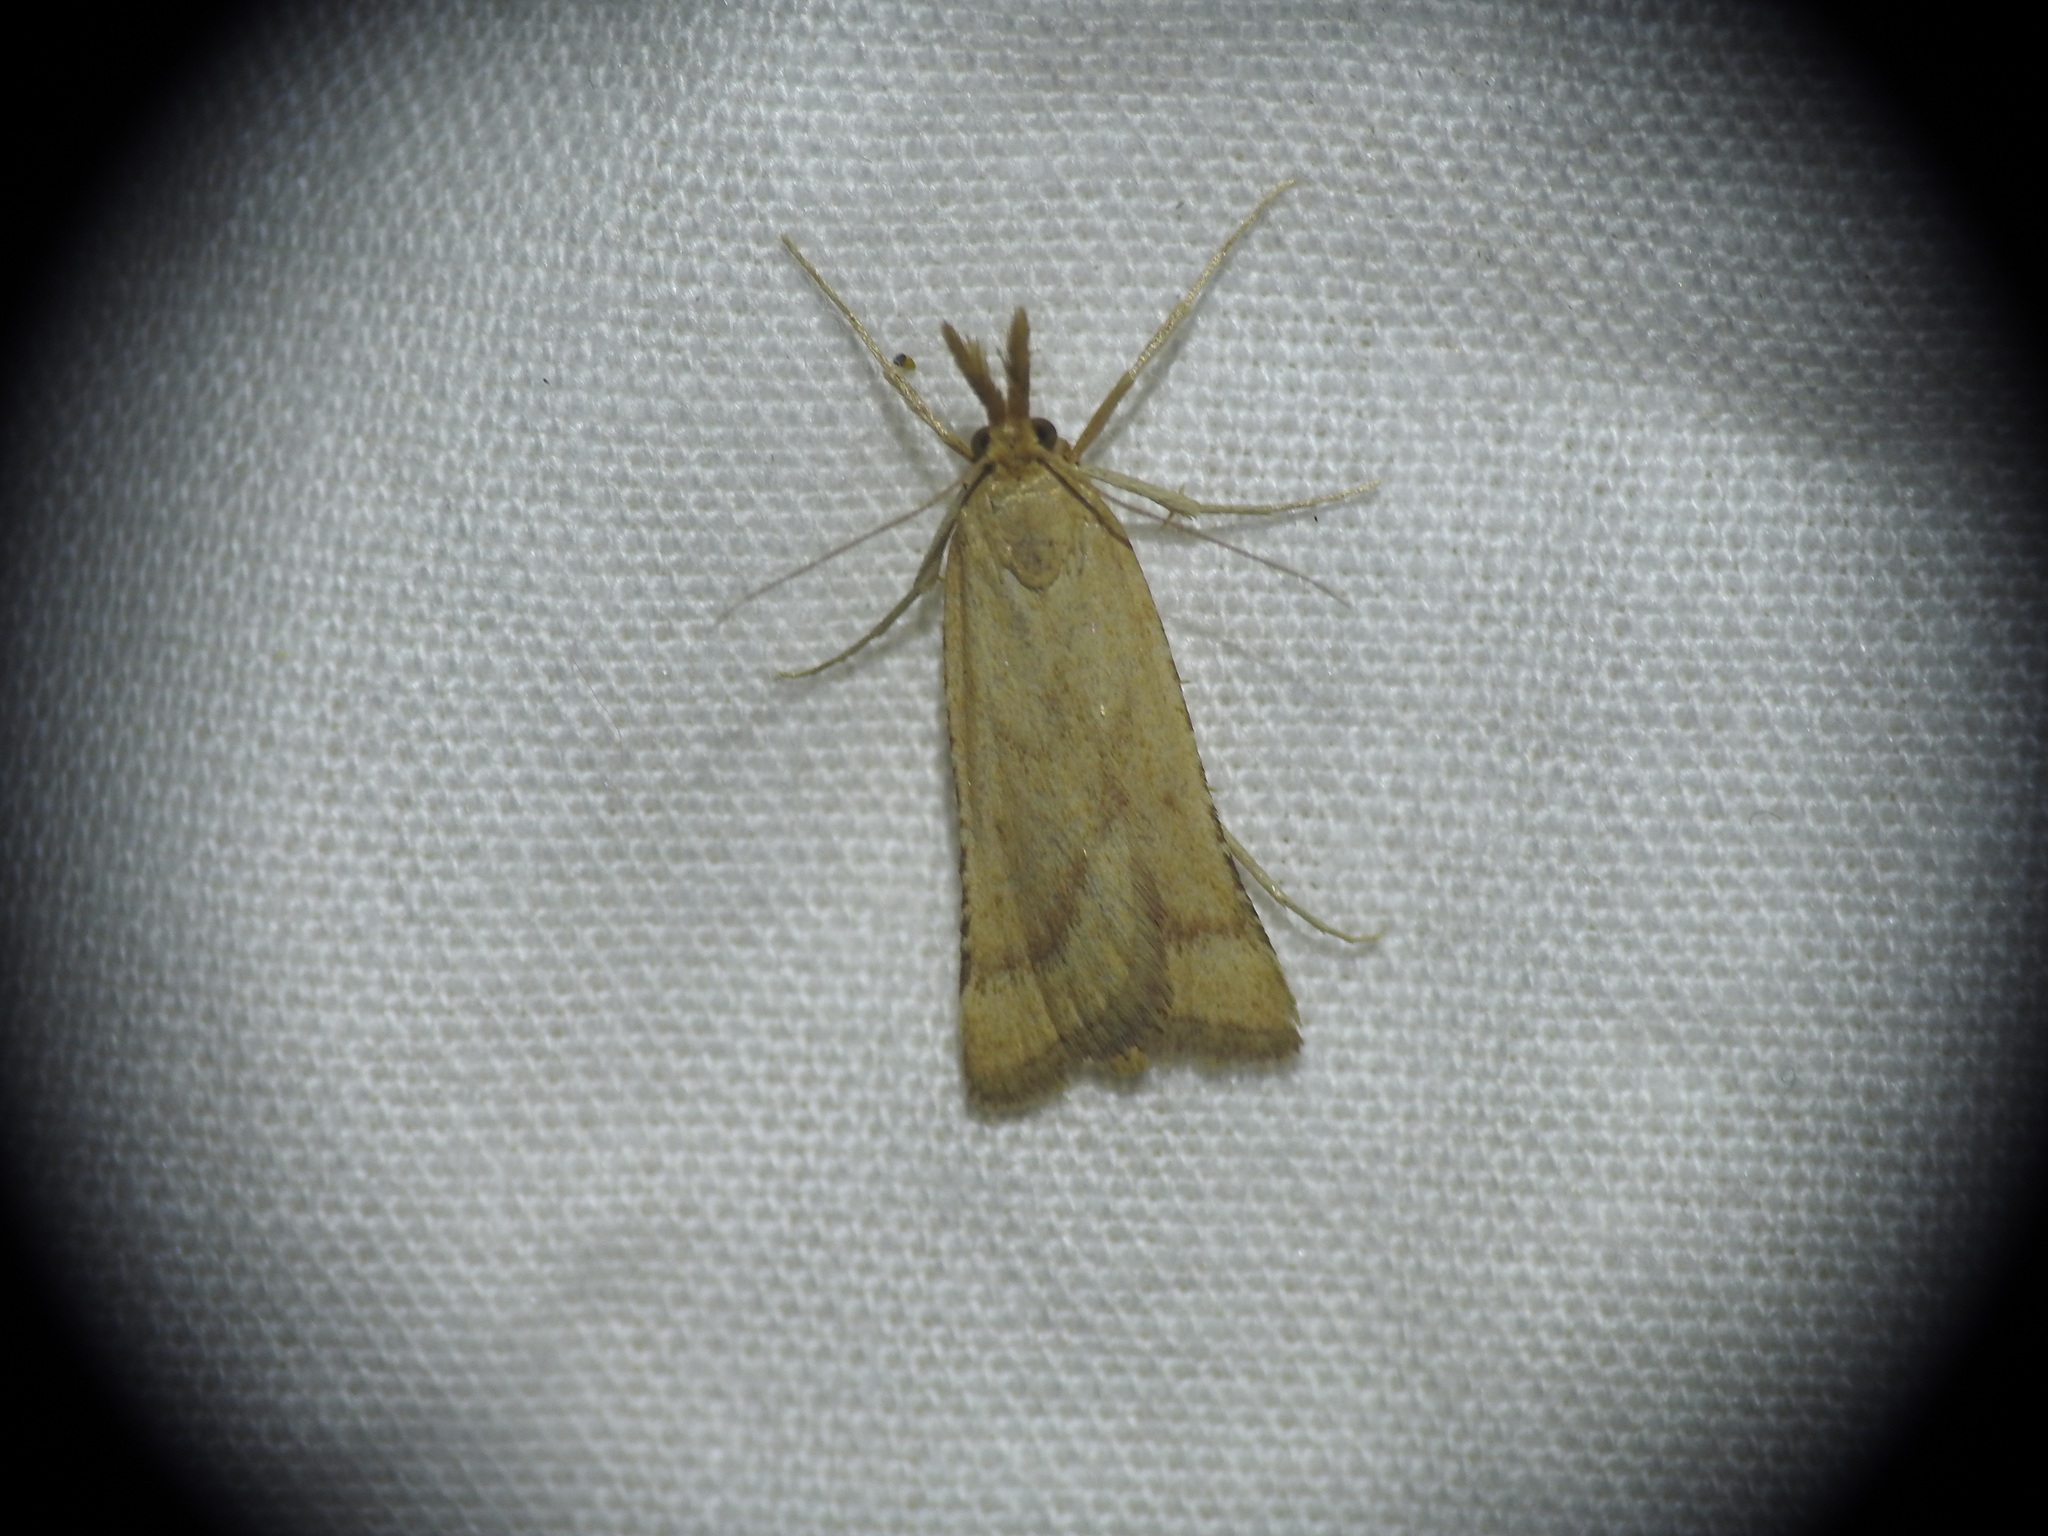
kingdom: Animalia
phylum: Arthropoda
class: Insecta
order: Lepidoptera
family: Pyralidae
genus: Synaphe
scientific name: Synaphe punctalis
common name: Long-legged tabby
